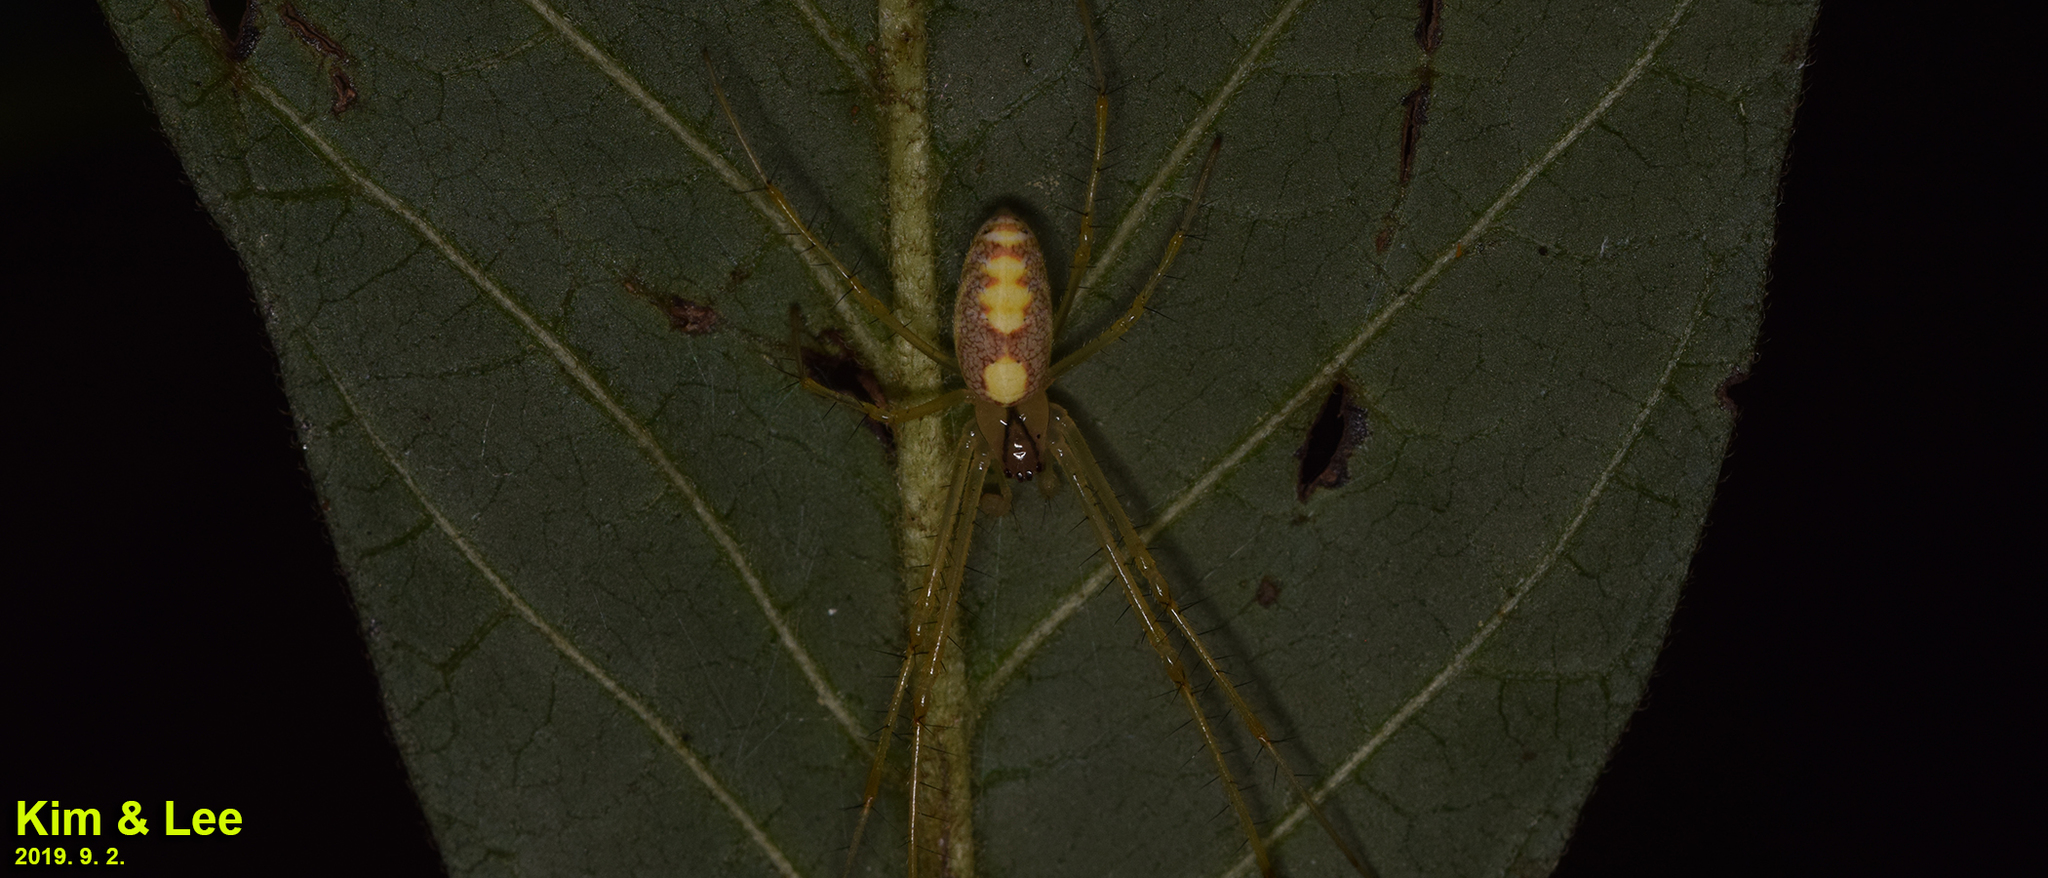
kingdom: Animalia
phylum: Arthropoda
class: Arachnida
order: Araneae
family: Tetragnathidae
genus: Metellina
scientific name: Metellina ornata
